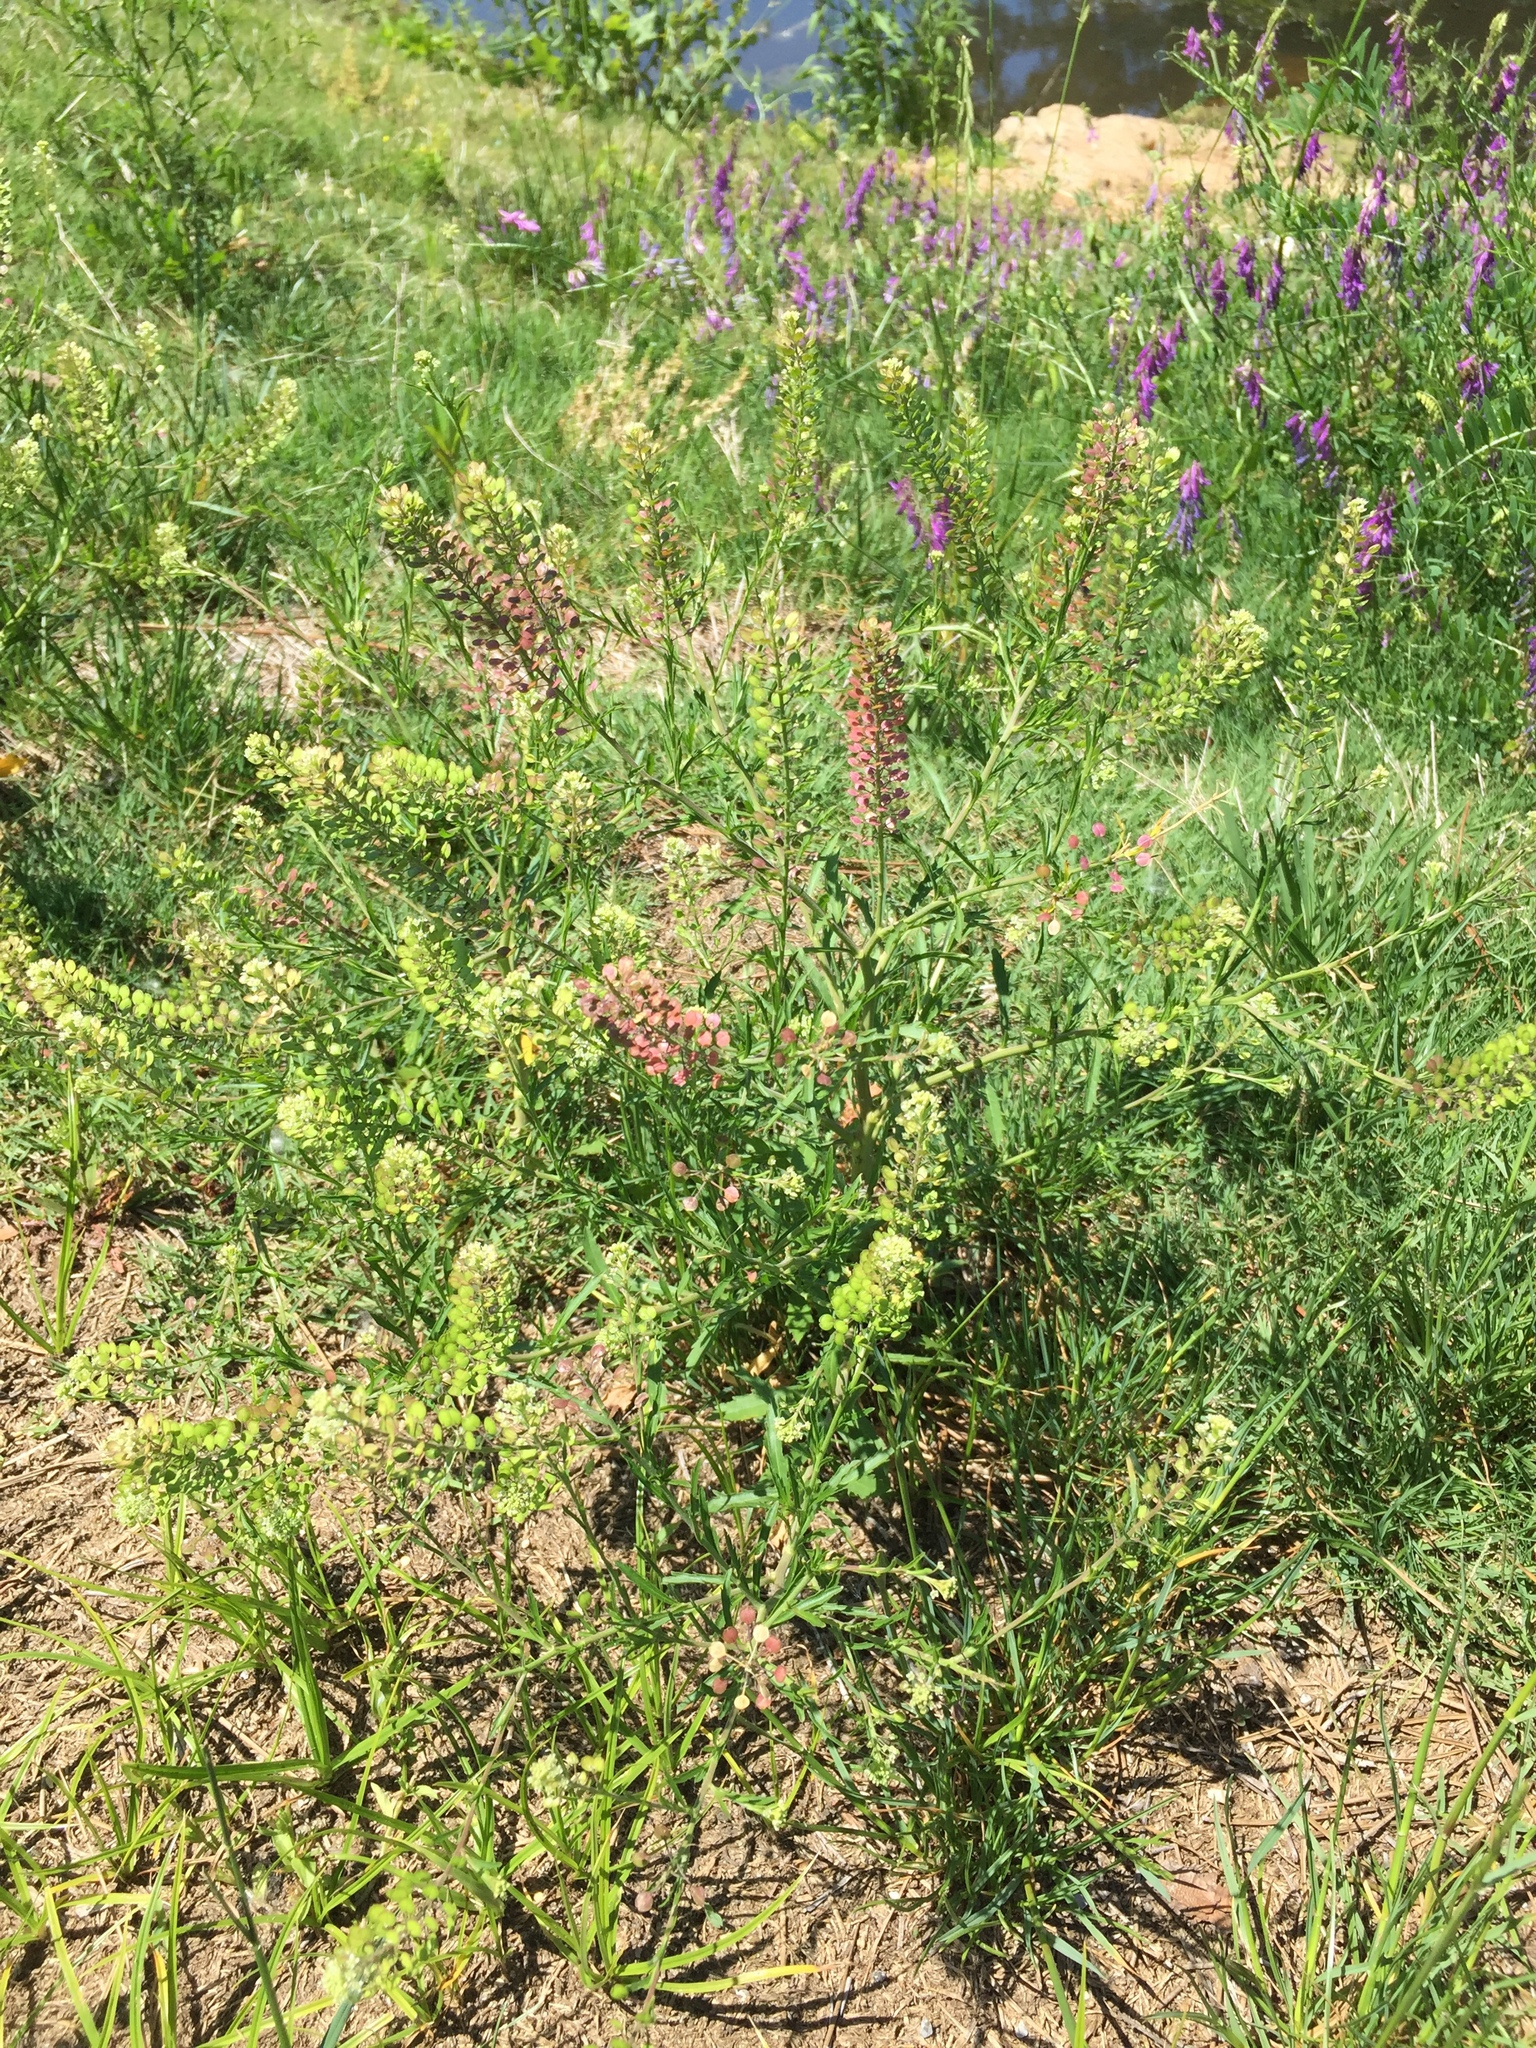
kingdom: Plantae
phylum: Tracheophyta
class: Magnoliopsida
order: Brassicales
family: Brassicaceae
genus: Lepidium
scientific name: Lepidium virginicum
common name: Least pepperwort
